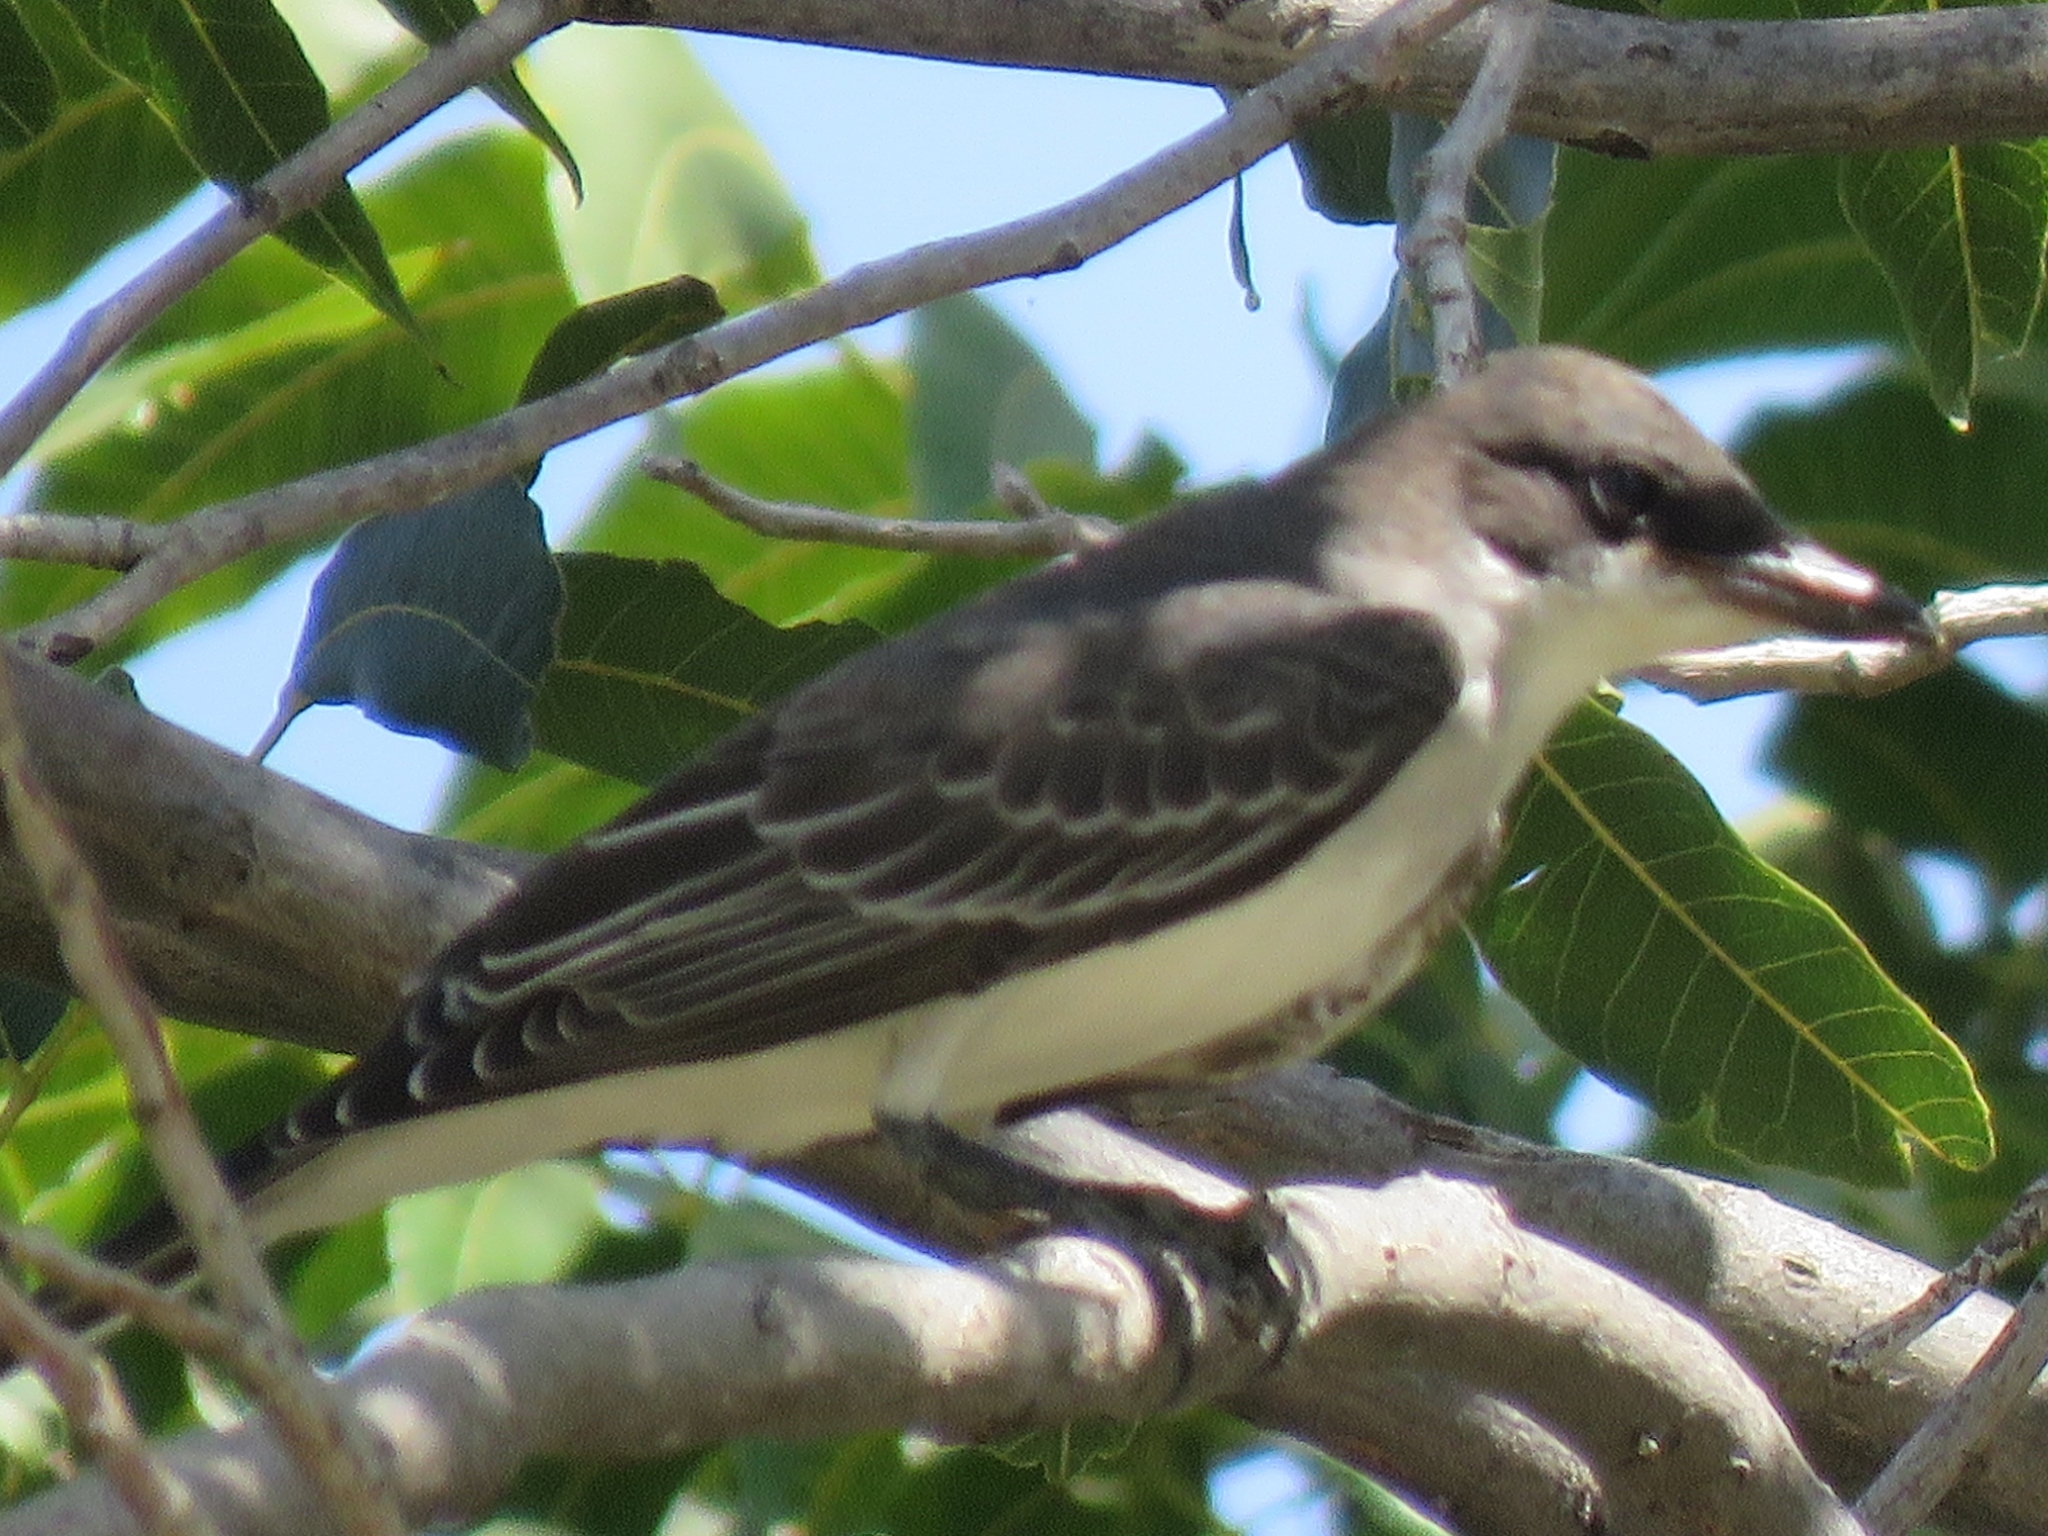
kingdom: Animalia
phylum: Chordata
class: Aves
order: Passeriformes
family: Tyrannidae
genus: Tyrannus
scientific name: Tyrannus tyrannus
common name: Eastern kingbird
